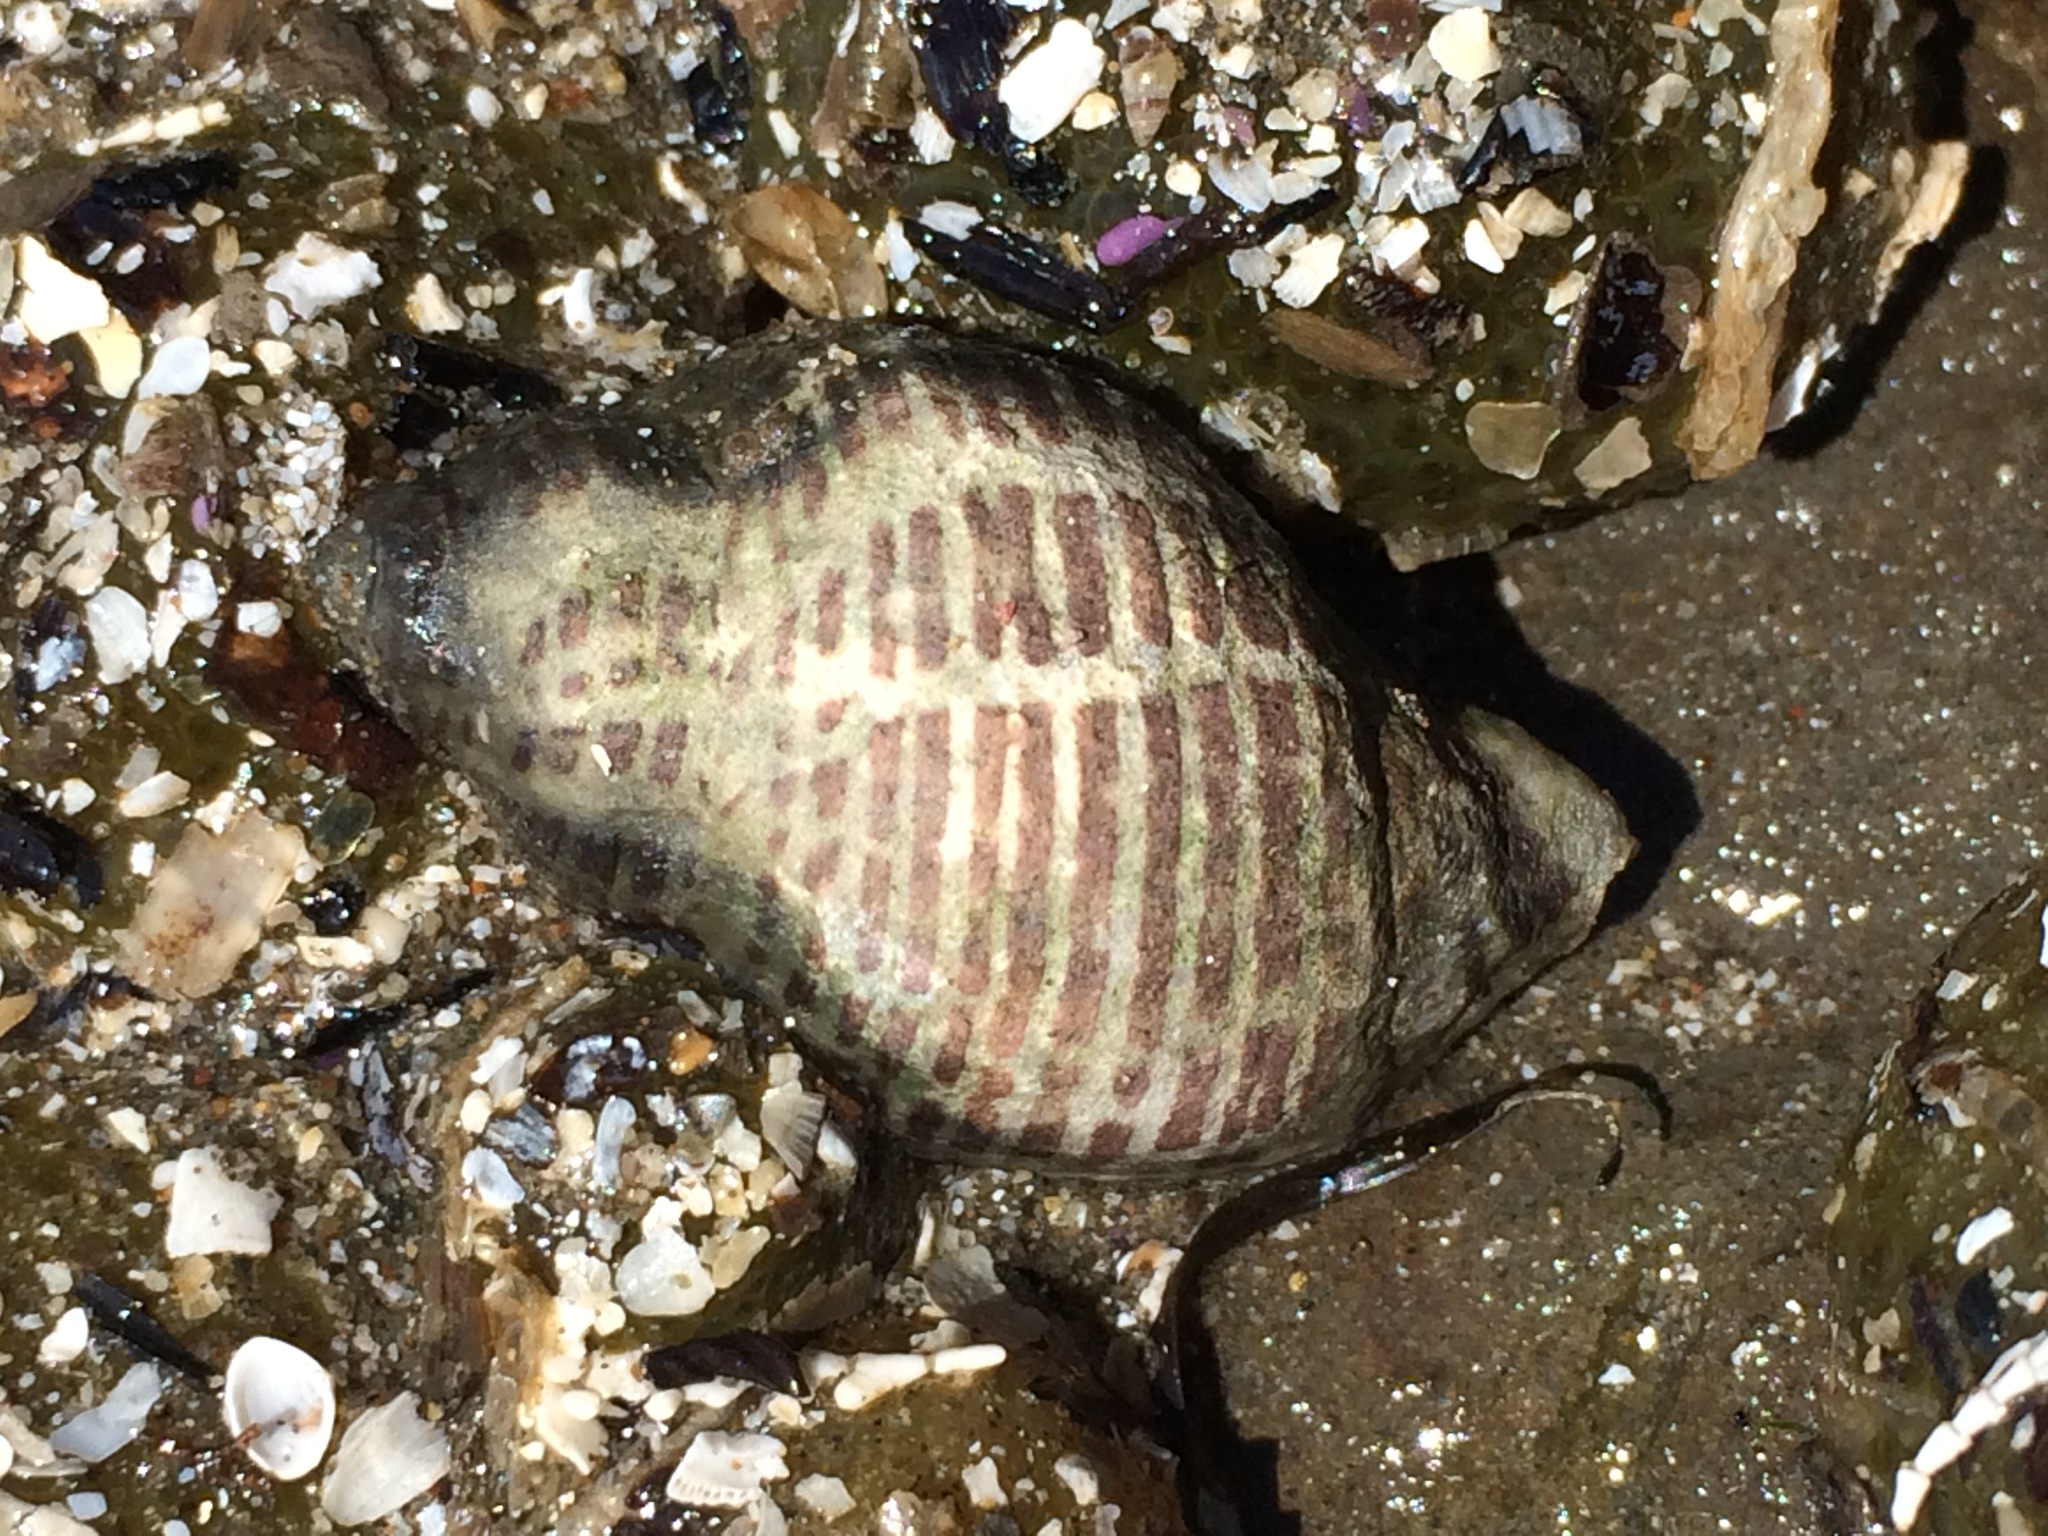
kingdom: Animalia
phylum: Mollusca
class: Gastropoda
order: Neogastropoda
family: Muricidae
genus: Acanthinucella
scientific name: Acanthinucella spirata
